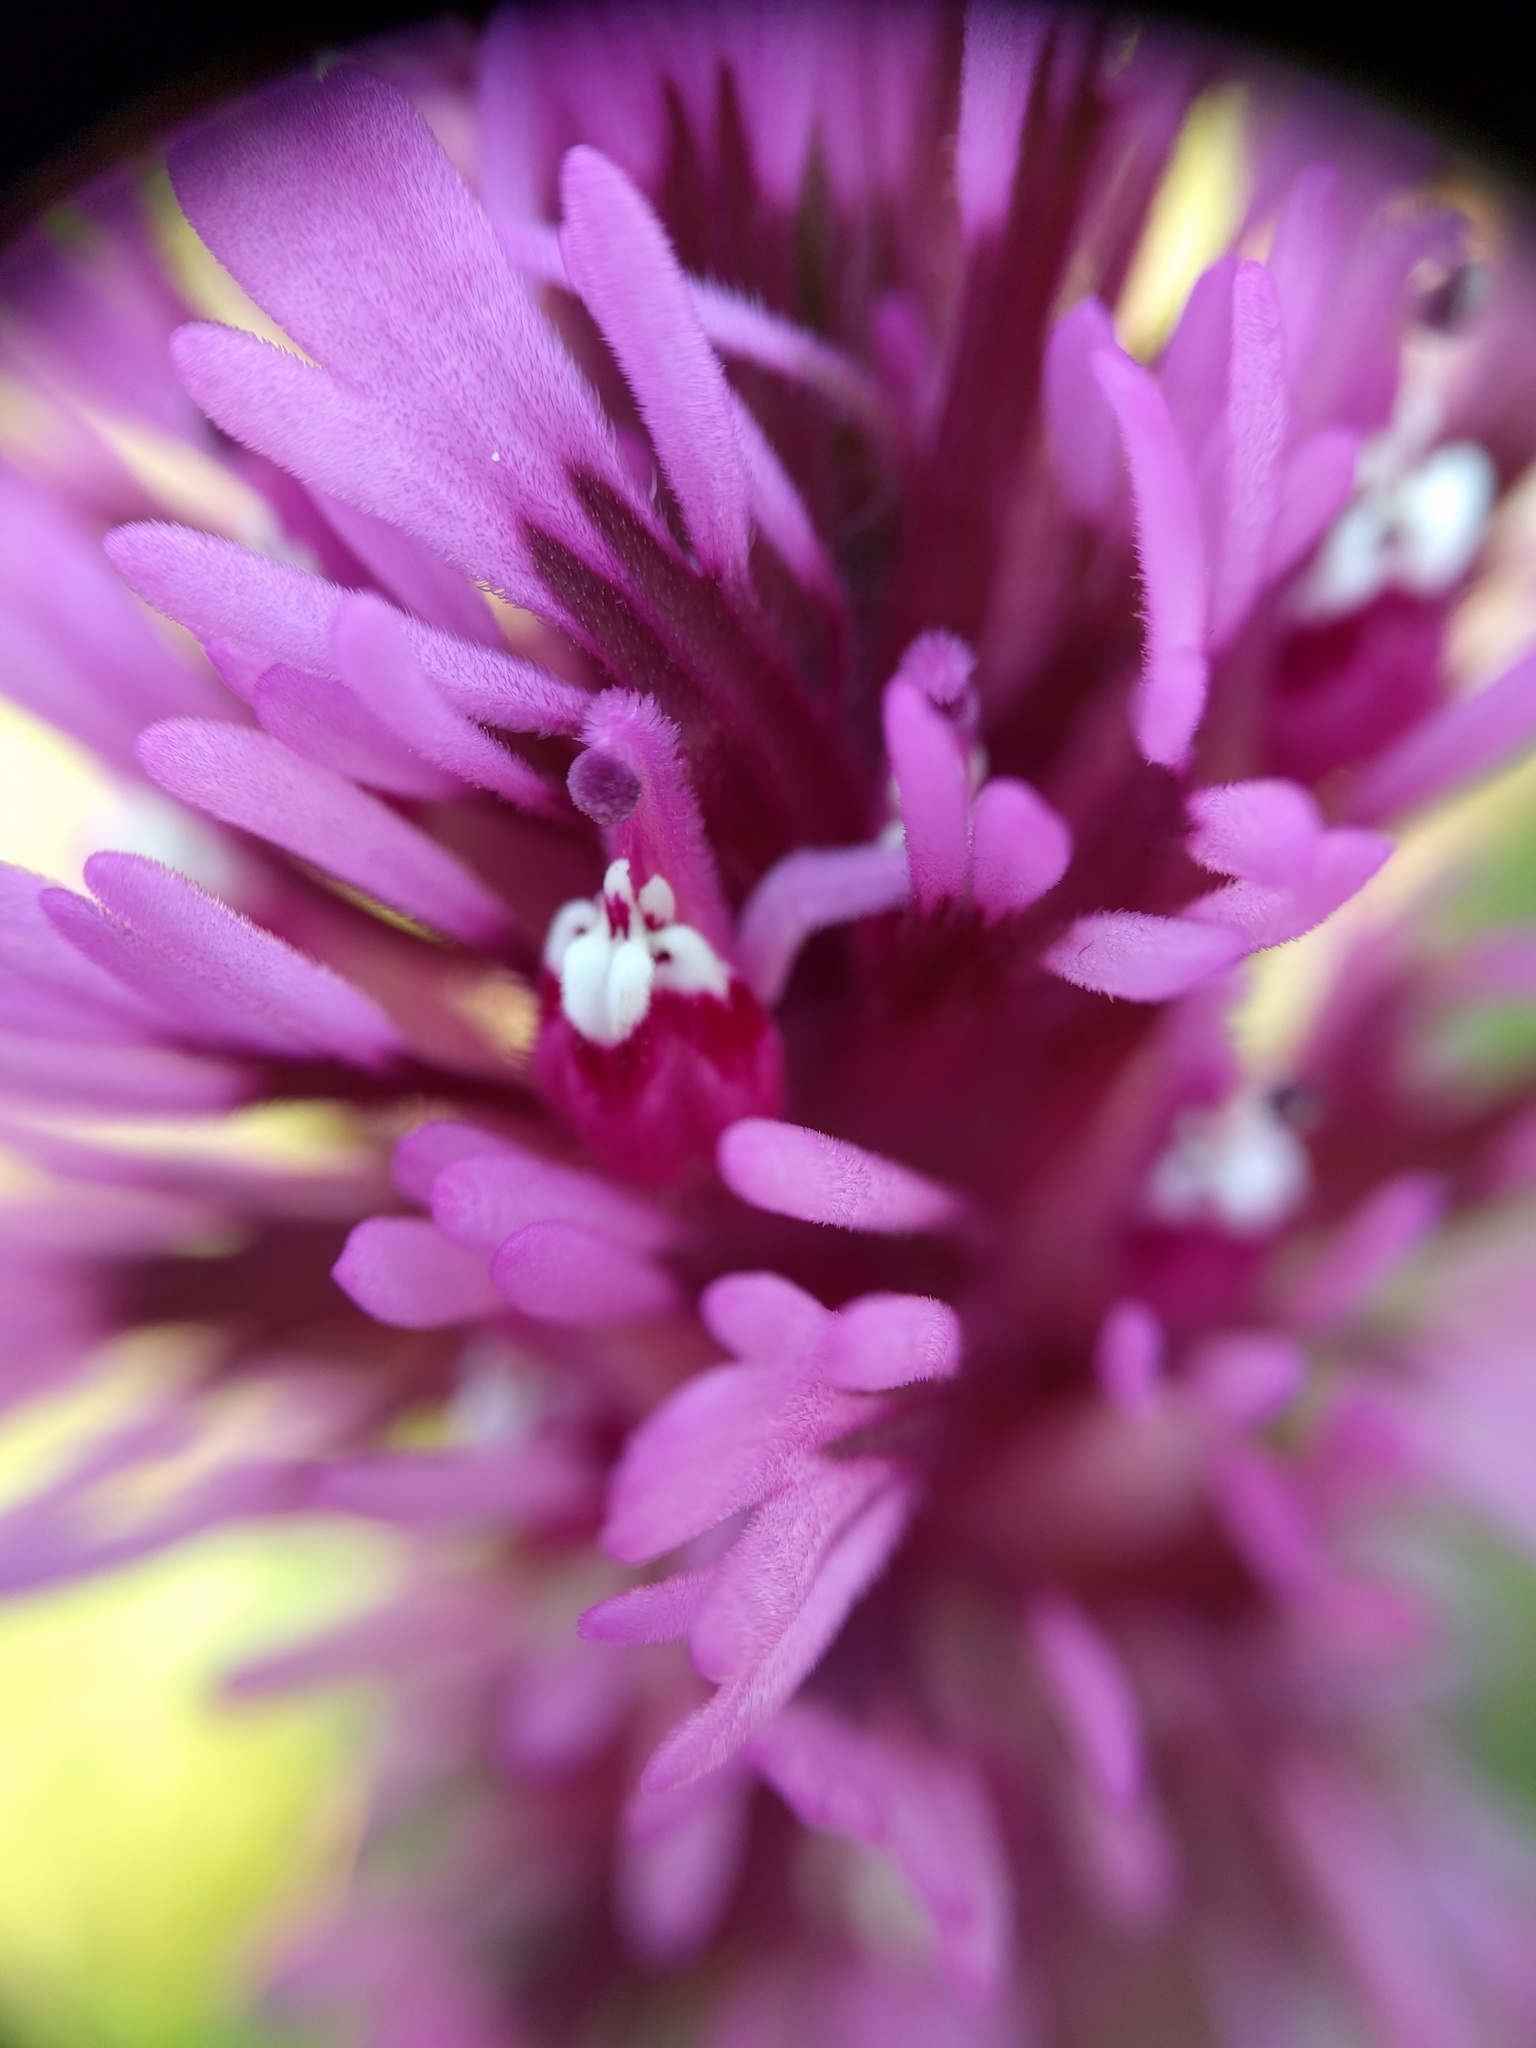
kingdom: Plantae
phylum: Tracheophyta
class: Magnoliopsida
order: Lamiales
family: Orobanchaceae
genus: Castilleja
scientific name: Castilleja exserta
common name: Purple owl-clover
